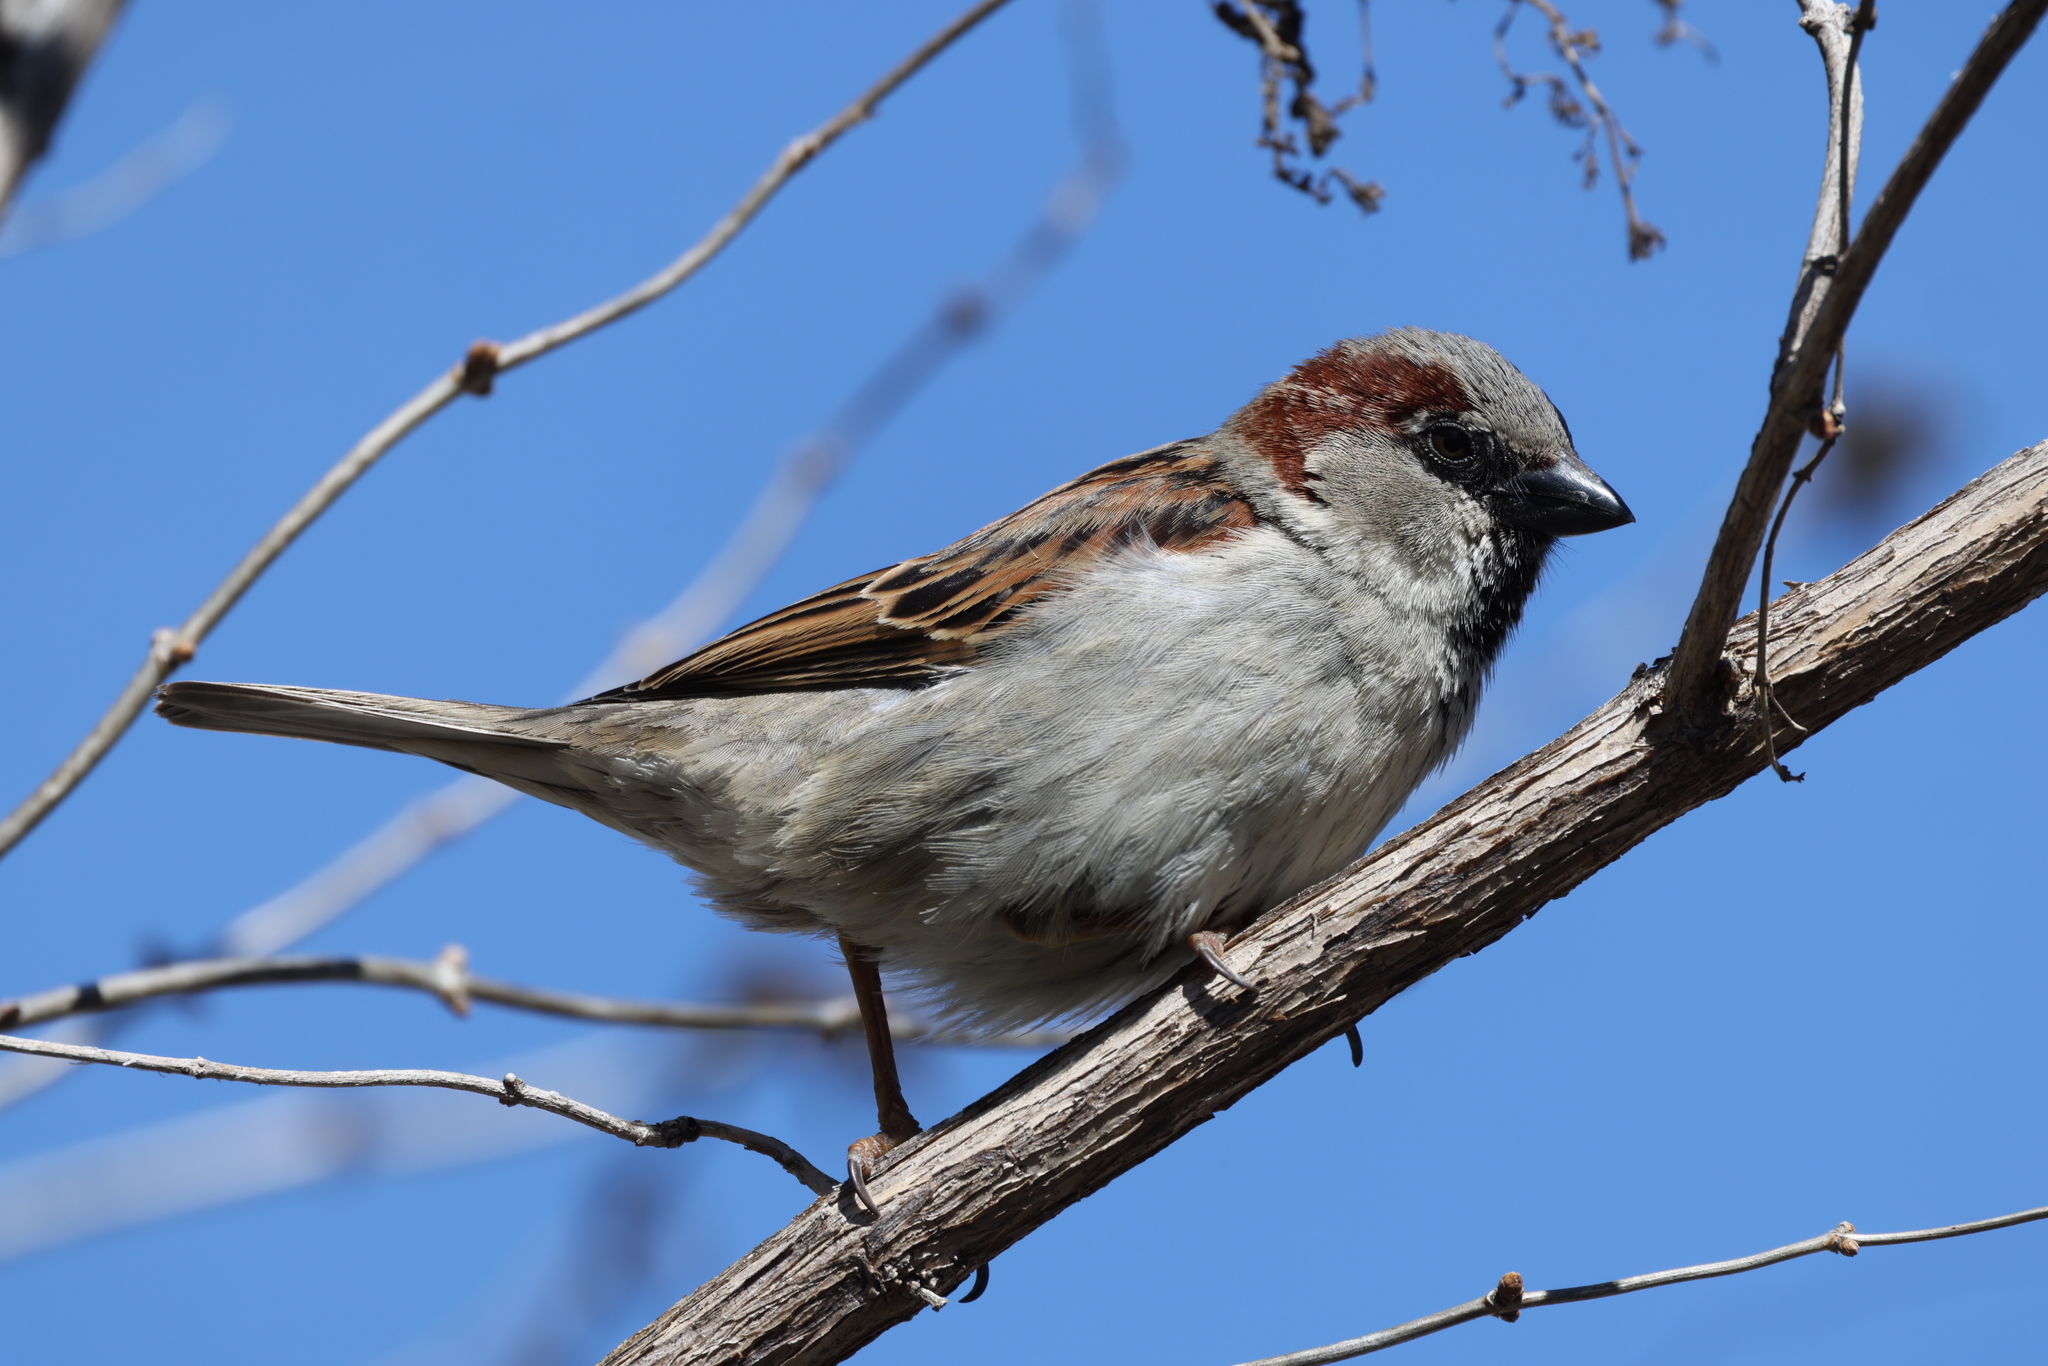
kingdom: Animalia
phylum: Chordata
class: Aves
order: Passeriformes
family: Passeridae
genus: Passer
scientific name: Passer domesticus
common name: House sparrow
